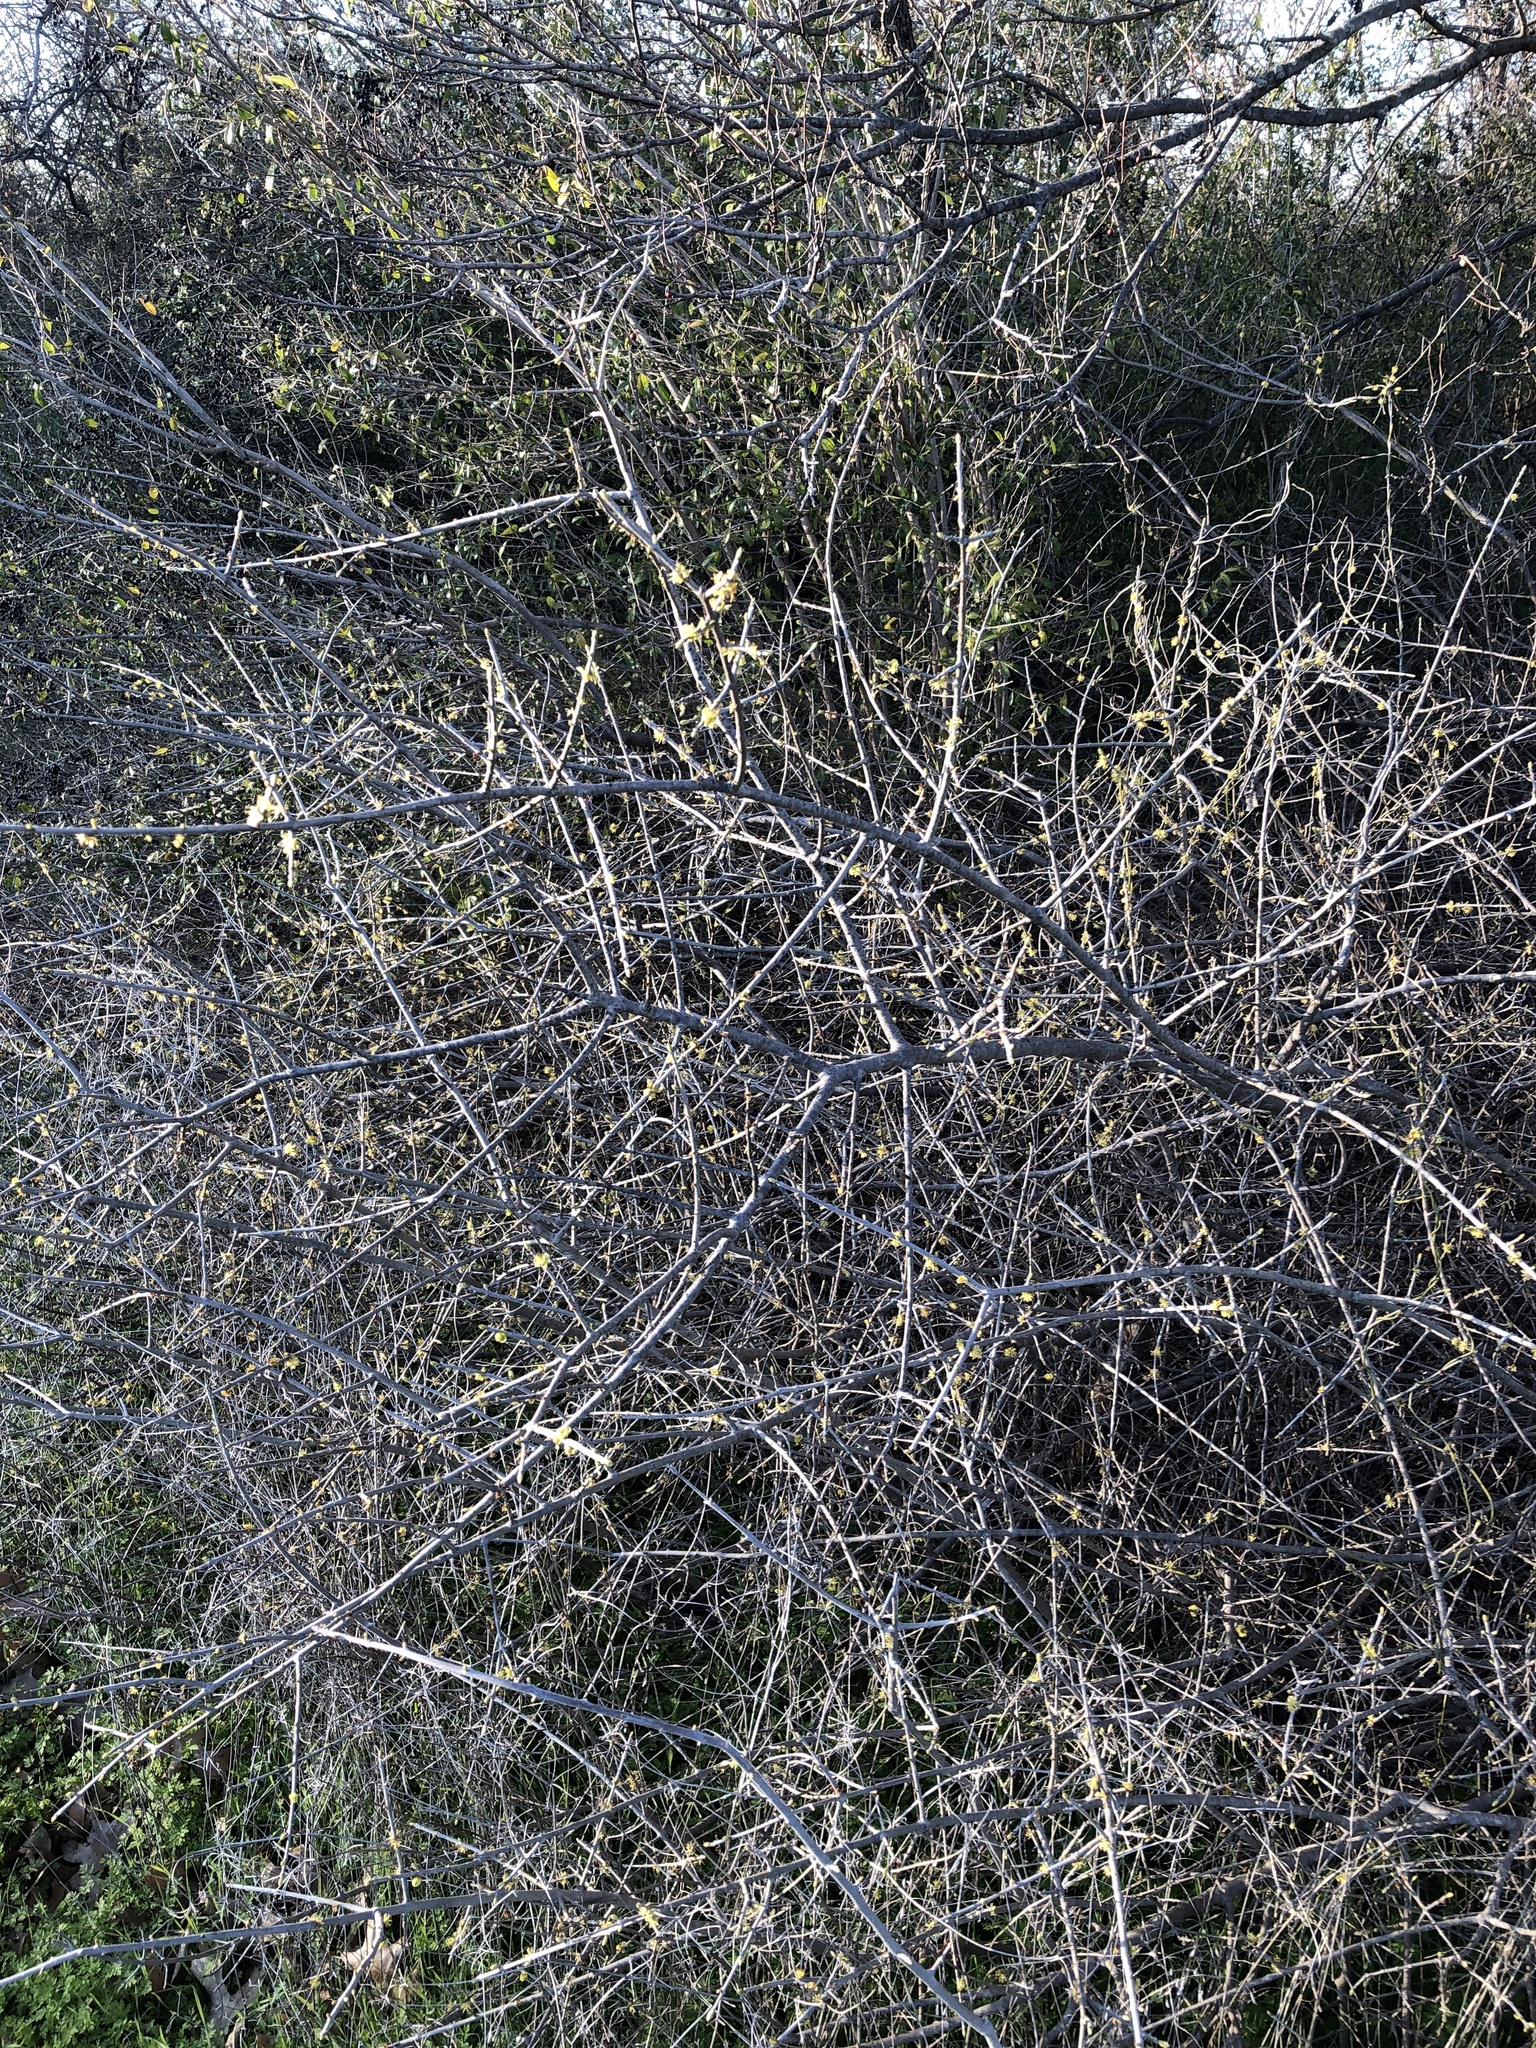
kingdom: Plantae
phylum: Tracheophyta
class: Magnoliopsida
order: Lamiales
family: Oleaceae
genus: Forestiera
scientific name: Forestiera pubescens
